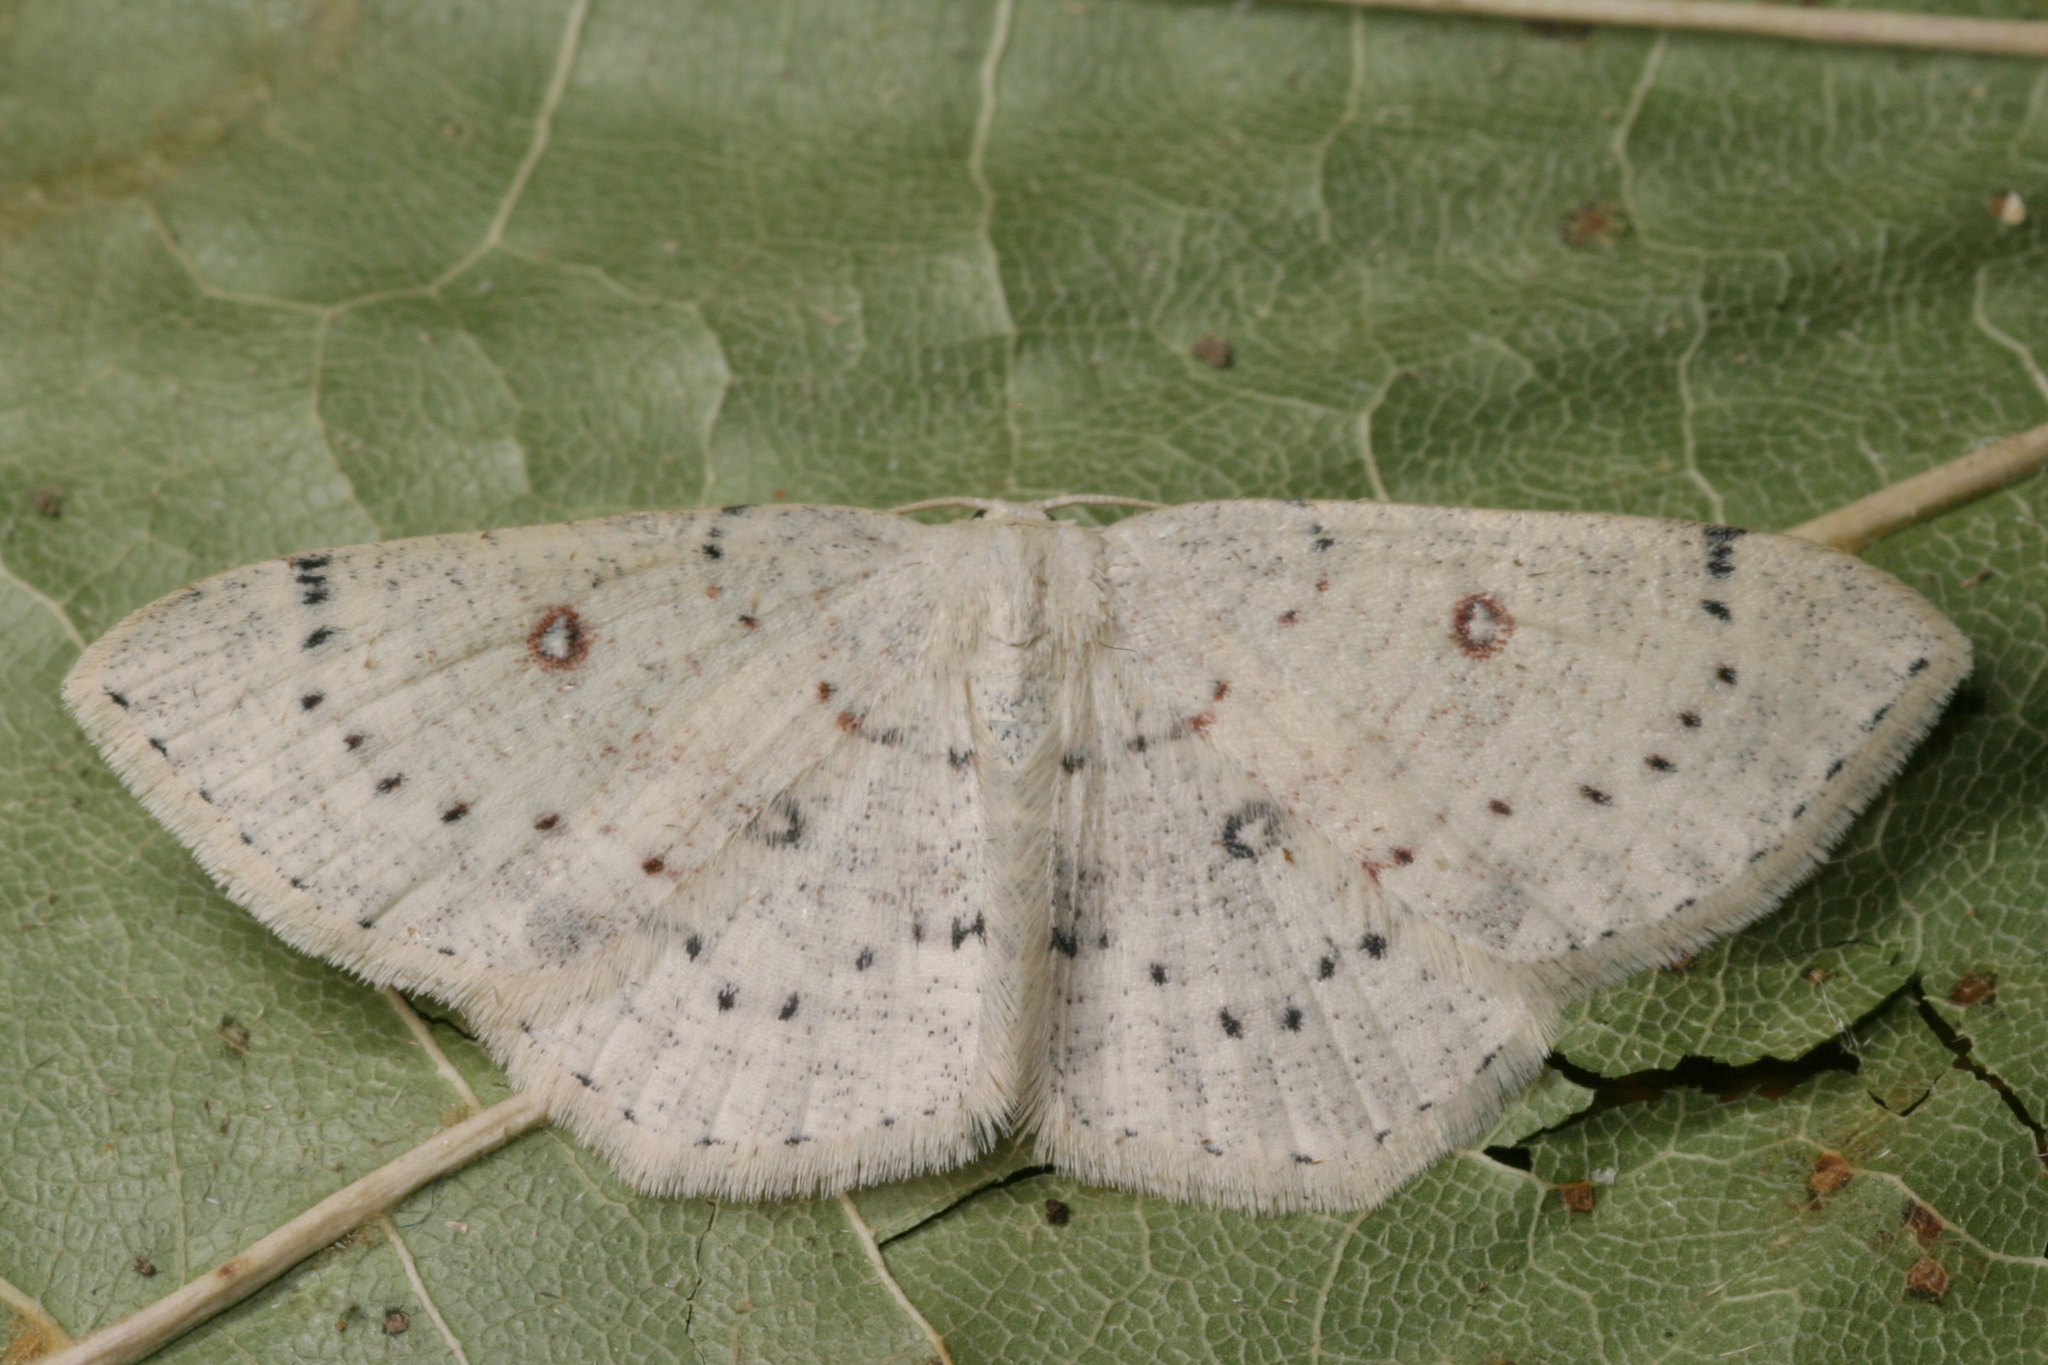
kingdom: Animalia
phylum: Arthropoda
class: Insecta
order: Lepidoptera
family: Geometridae
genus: Cyclophora
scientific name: Cyclophora albipunctata
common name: Birch mocha
